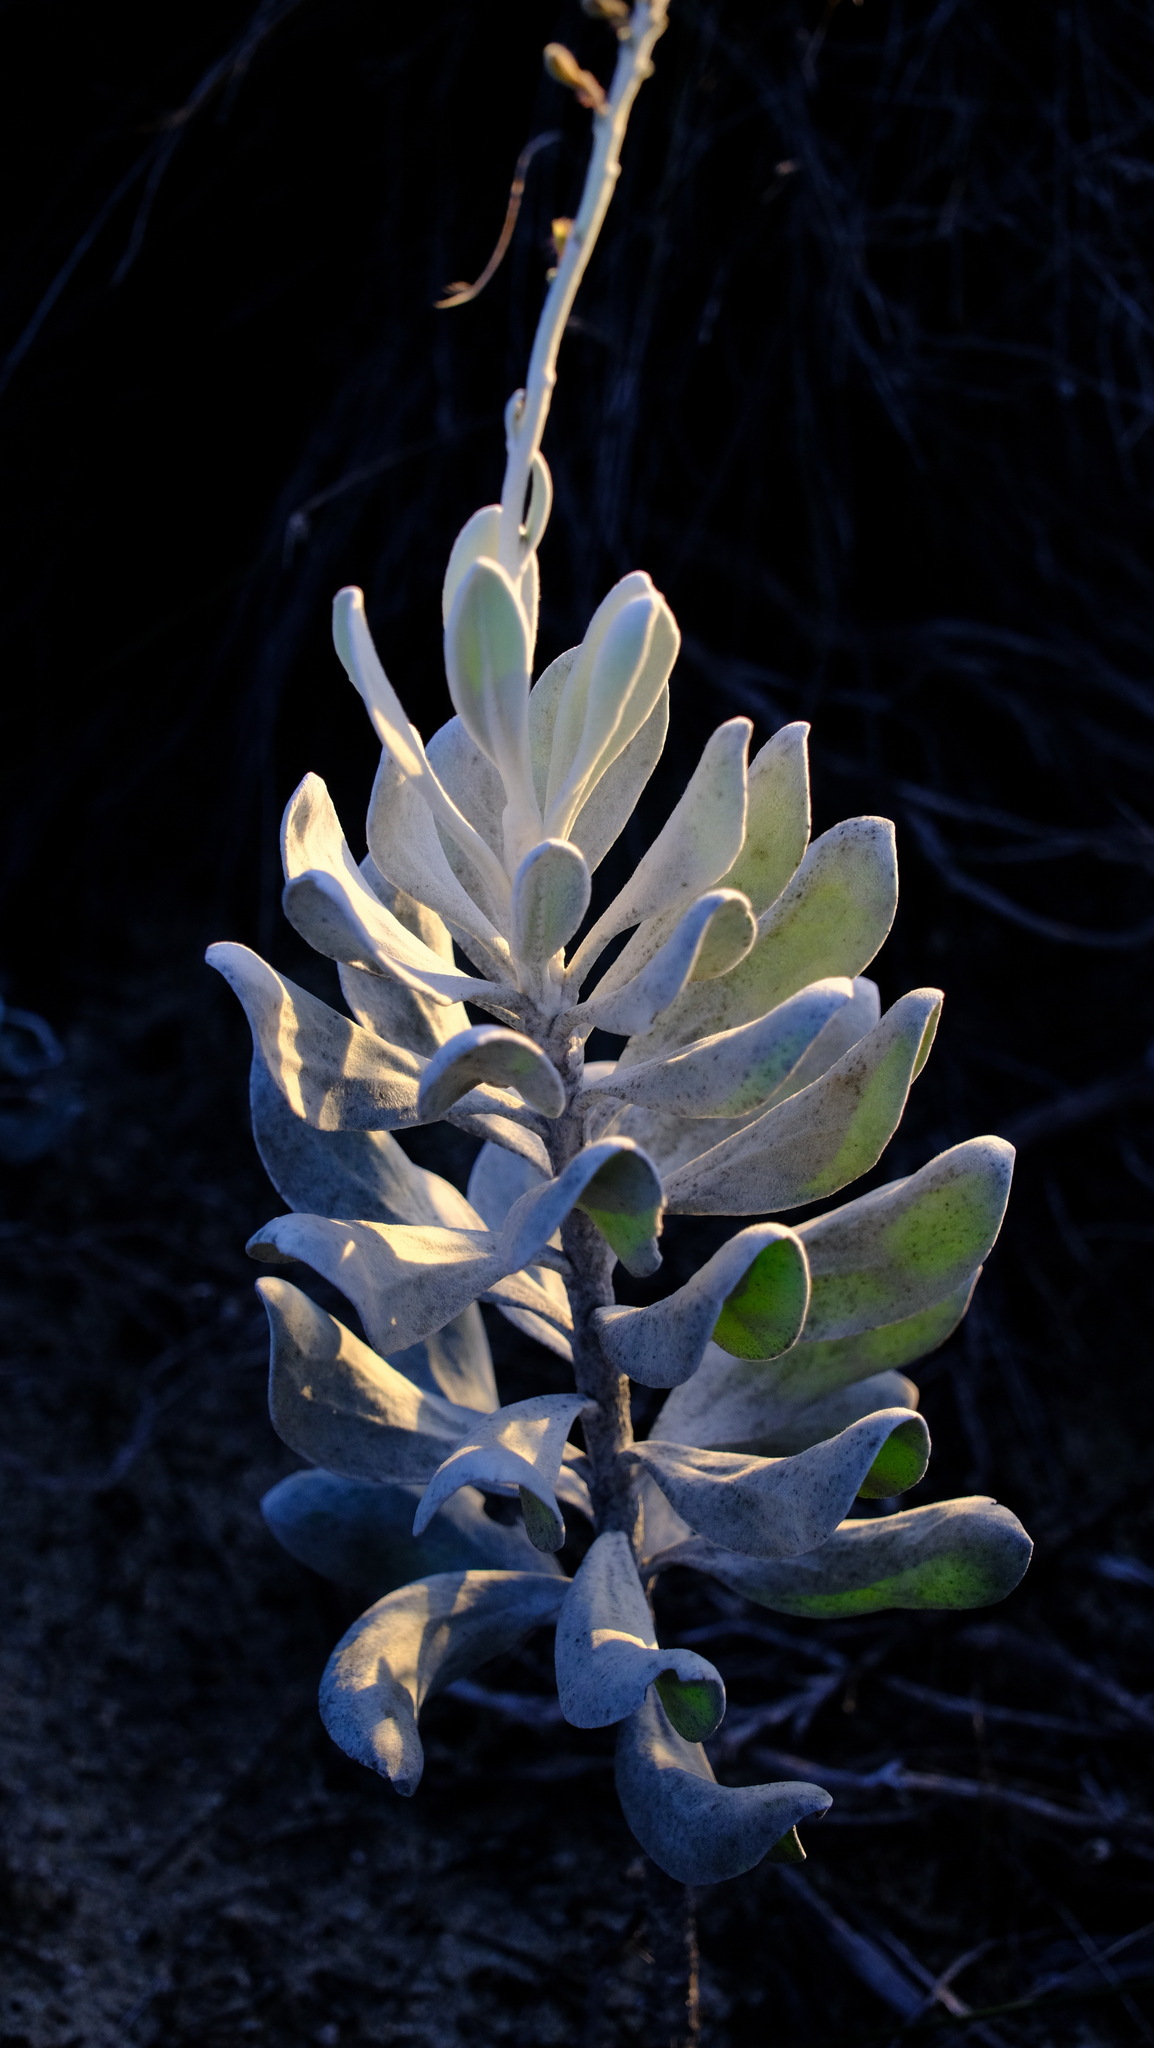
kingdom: Plantae
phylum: Tracheophyta
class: Magnoliopsida
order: Asterales
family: Goodeniaceae
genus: Goodenia
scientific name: Goodenia reinwardtii
